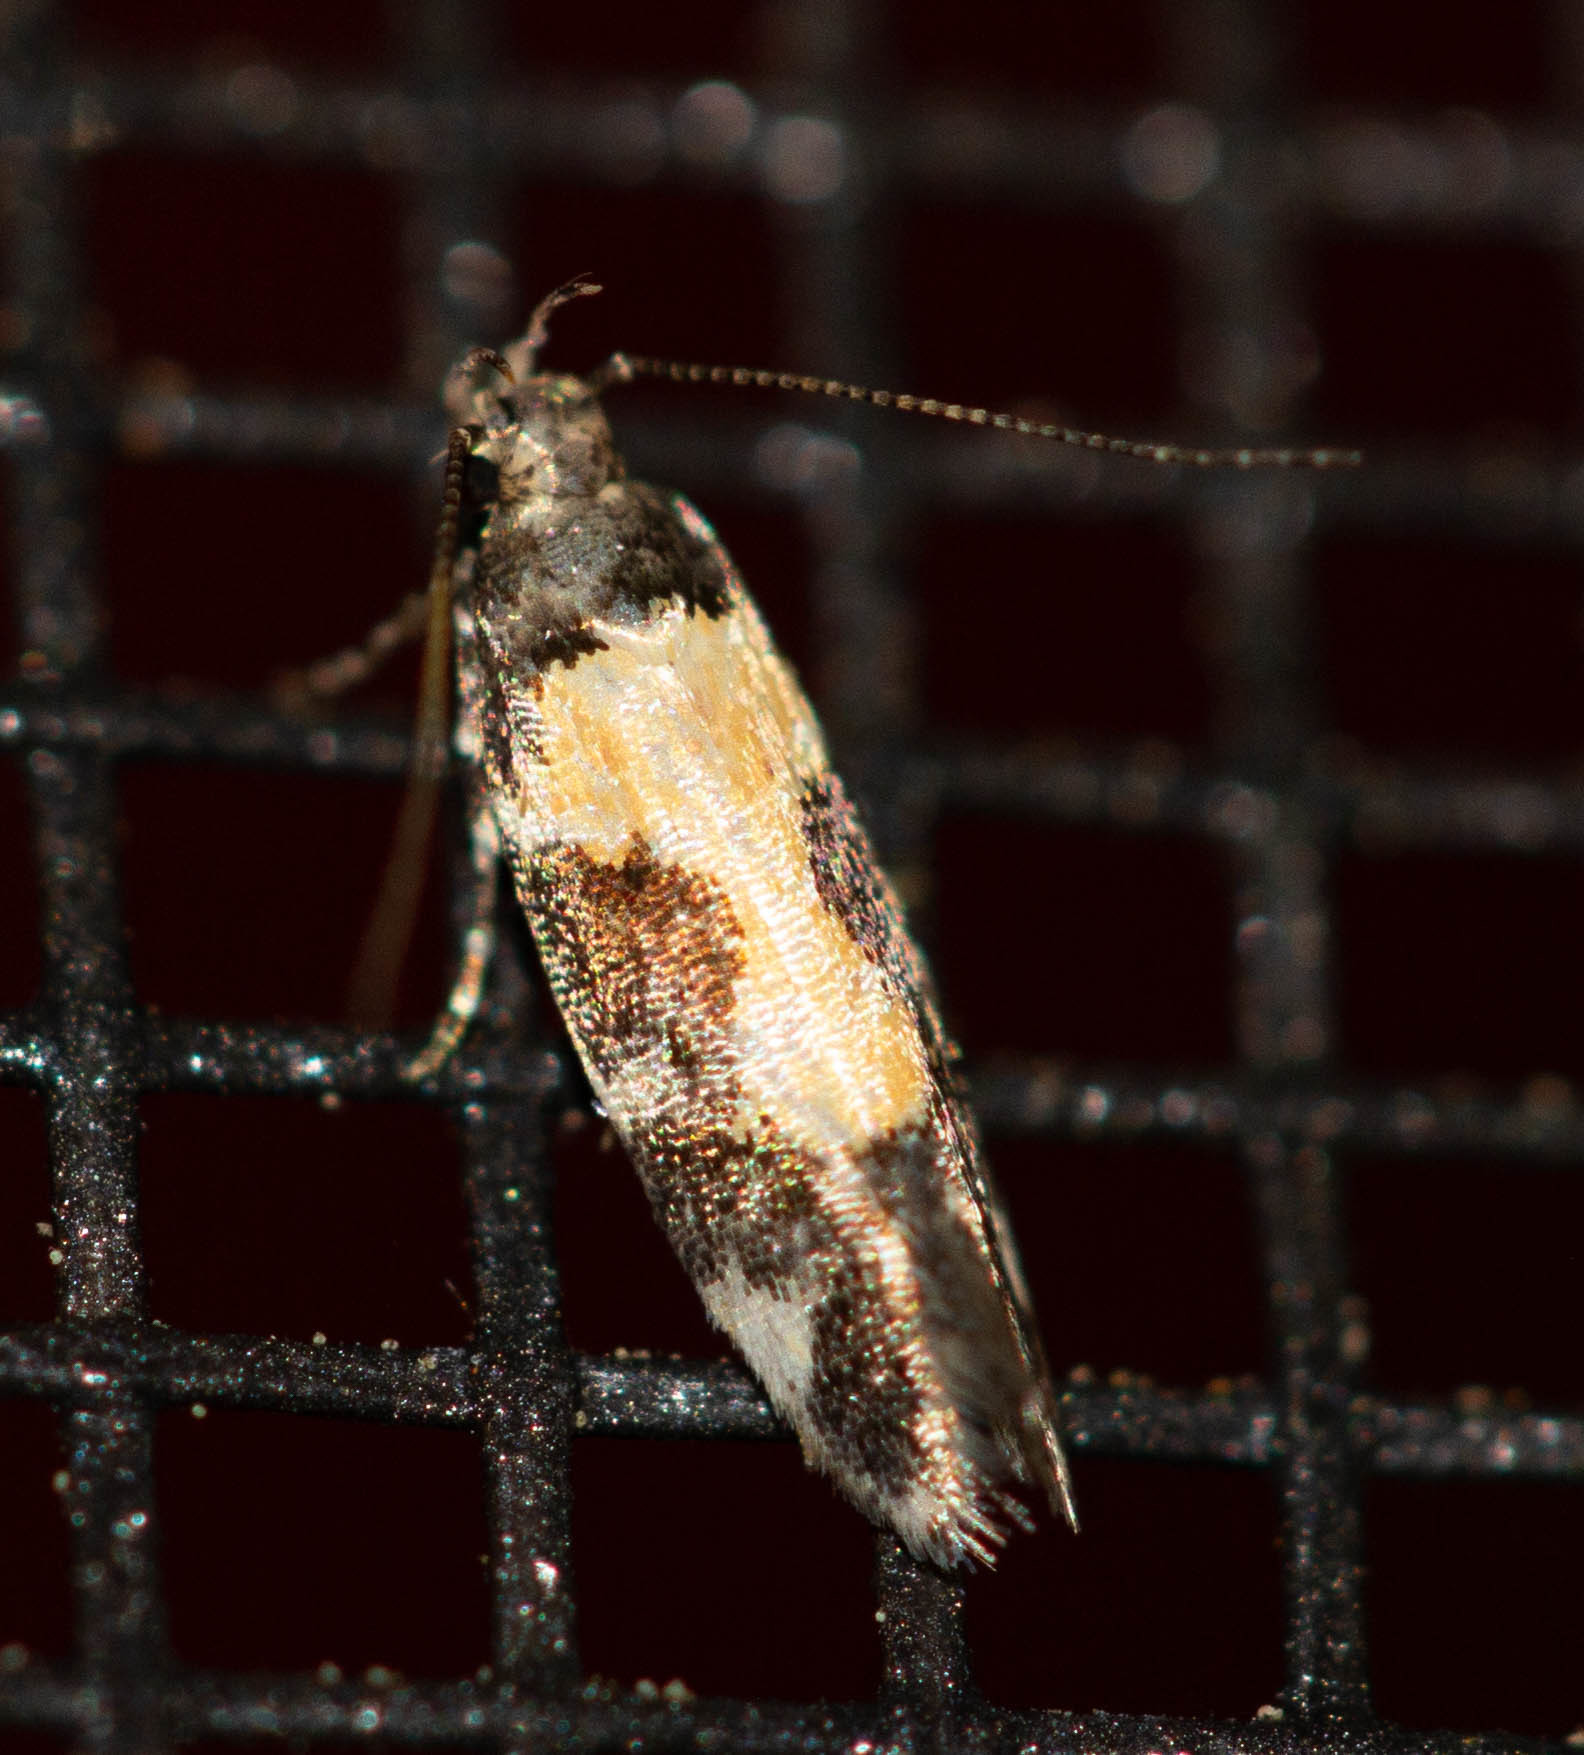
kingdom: Animalia
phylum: Arthropoda
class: Insecta
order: Lepidoptera
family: Gelechiidae
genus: Stegasta
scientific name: Stegasta bosqueella
